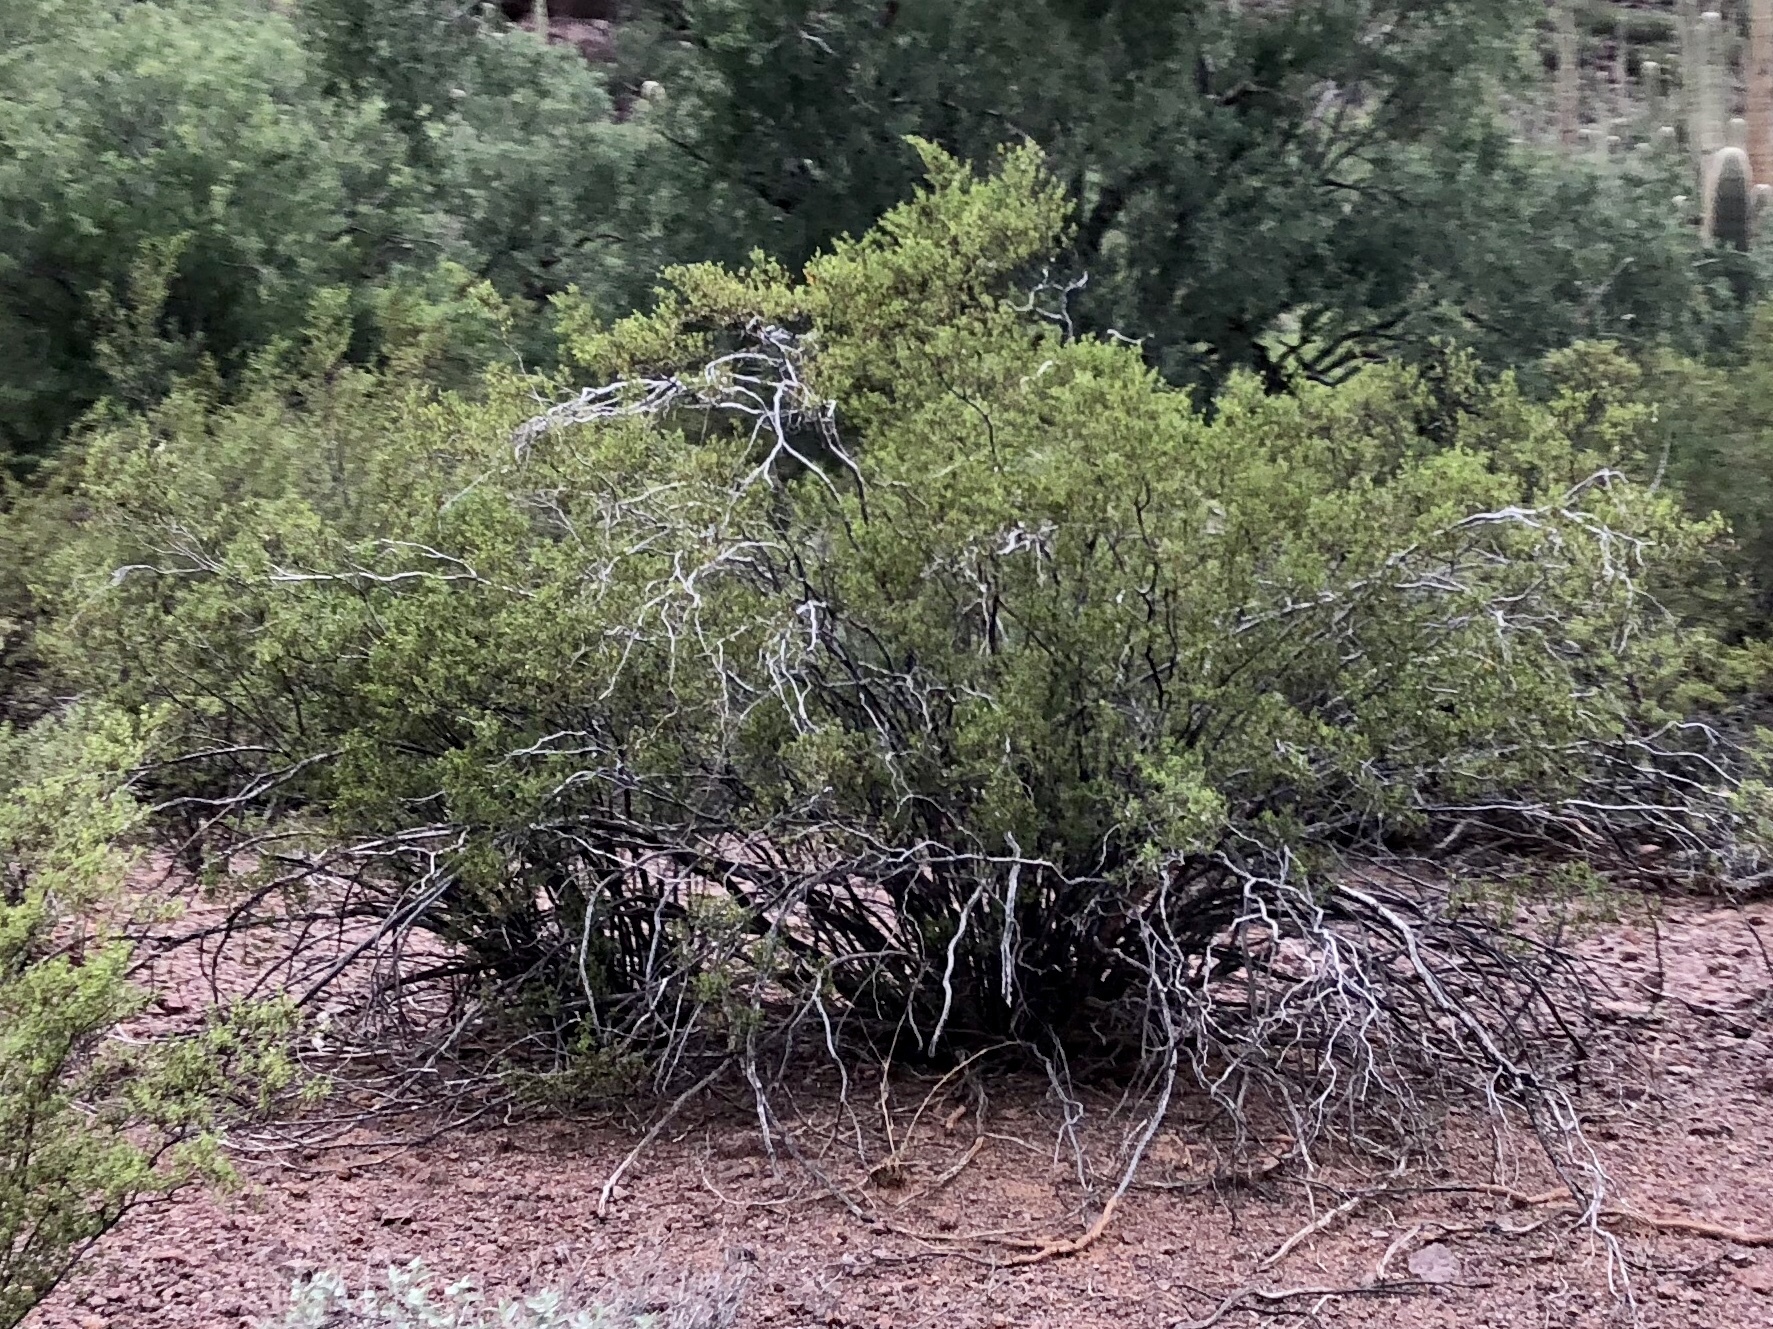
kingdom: Plantae
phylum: Tracheophyta
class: Magnoliopsida
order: Zygophyllales
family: Zygophyllaceae
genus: Larrea
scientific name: Larrea tridentata
